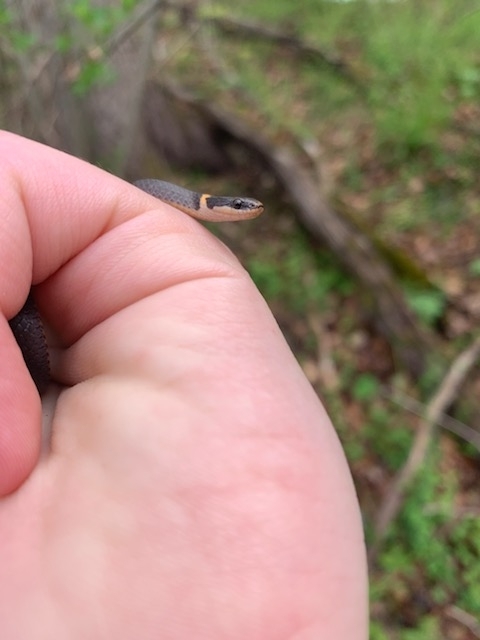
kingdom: Animalia
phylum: Chordata
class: Squamata
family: Colubridae
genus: Diadophis
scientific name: Diadophis punctatus
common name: Ringneck snake
